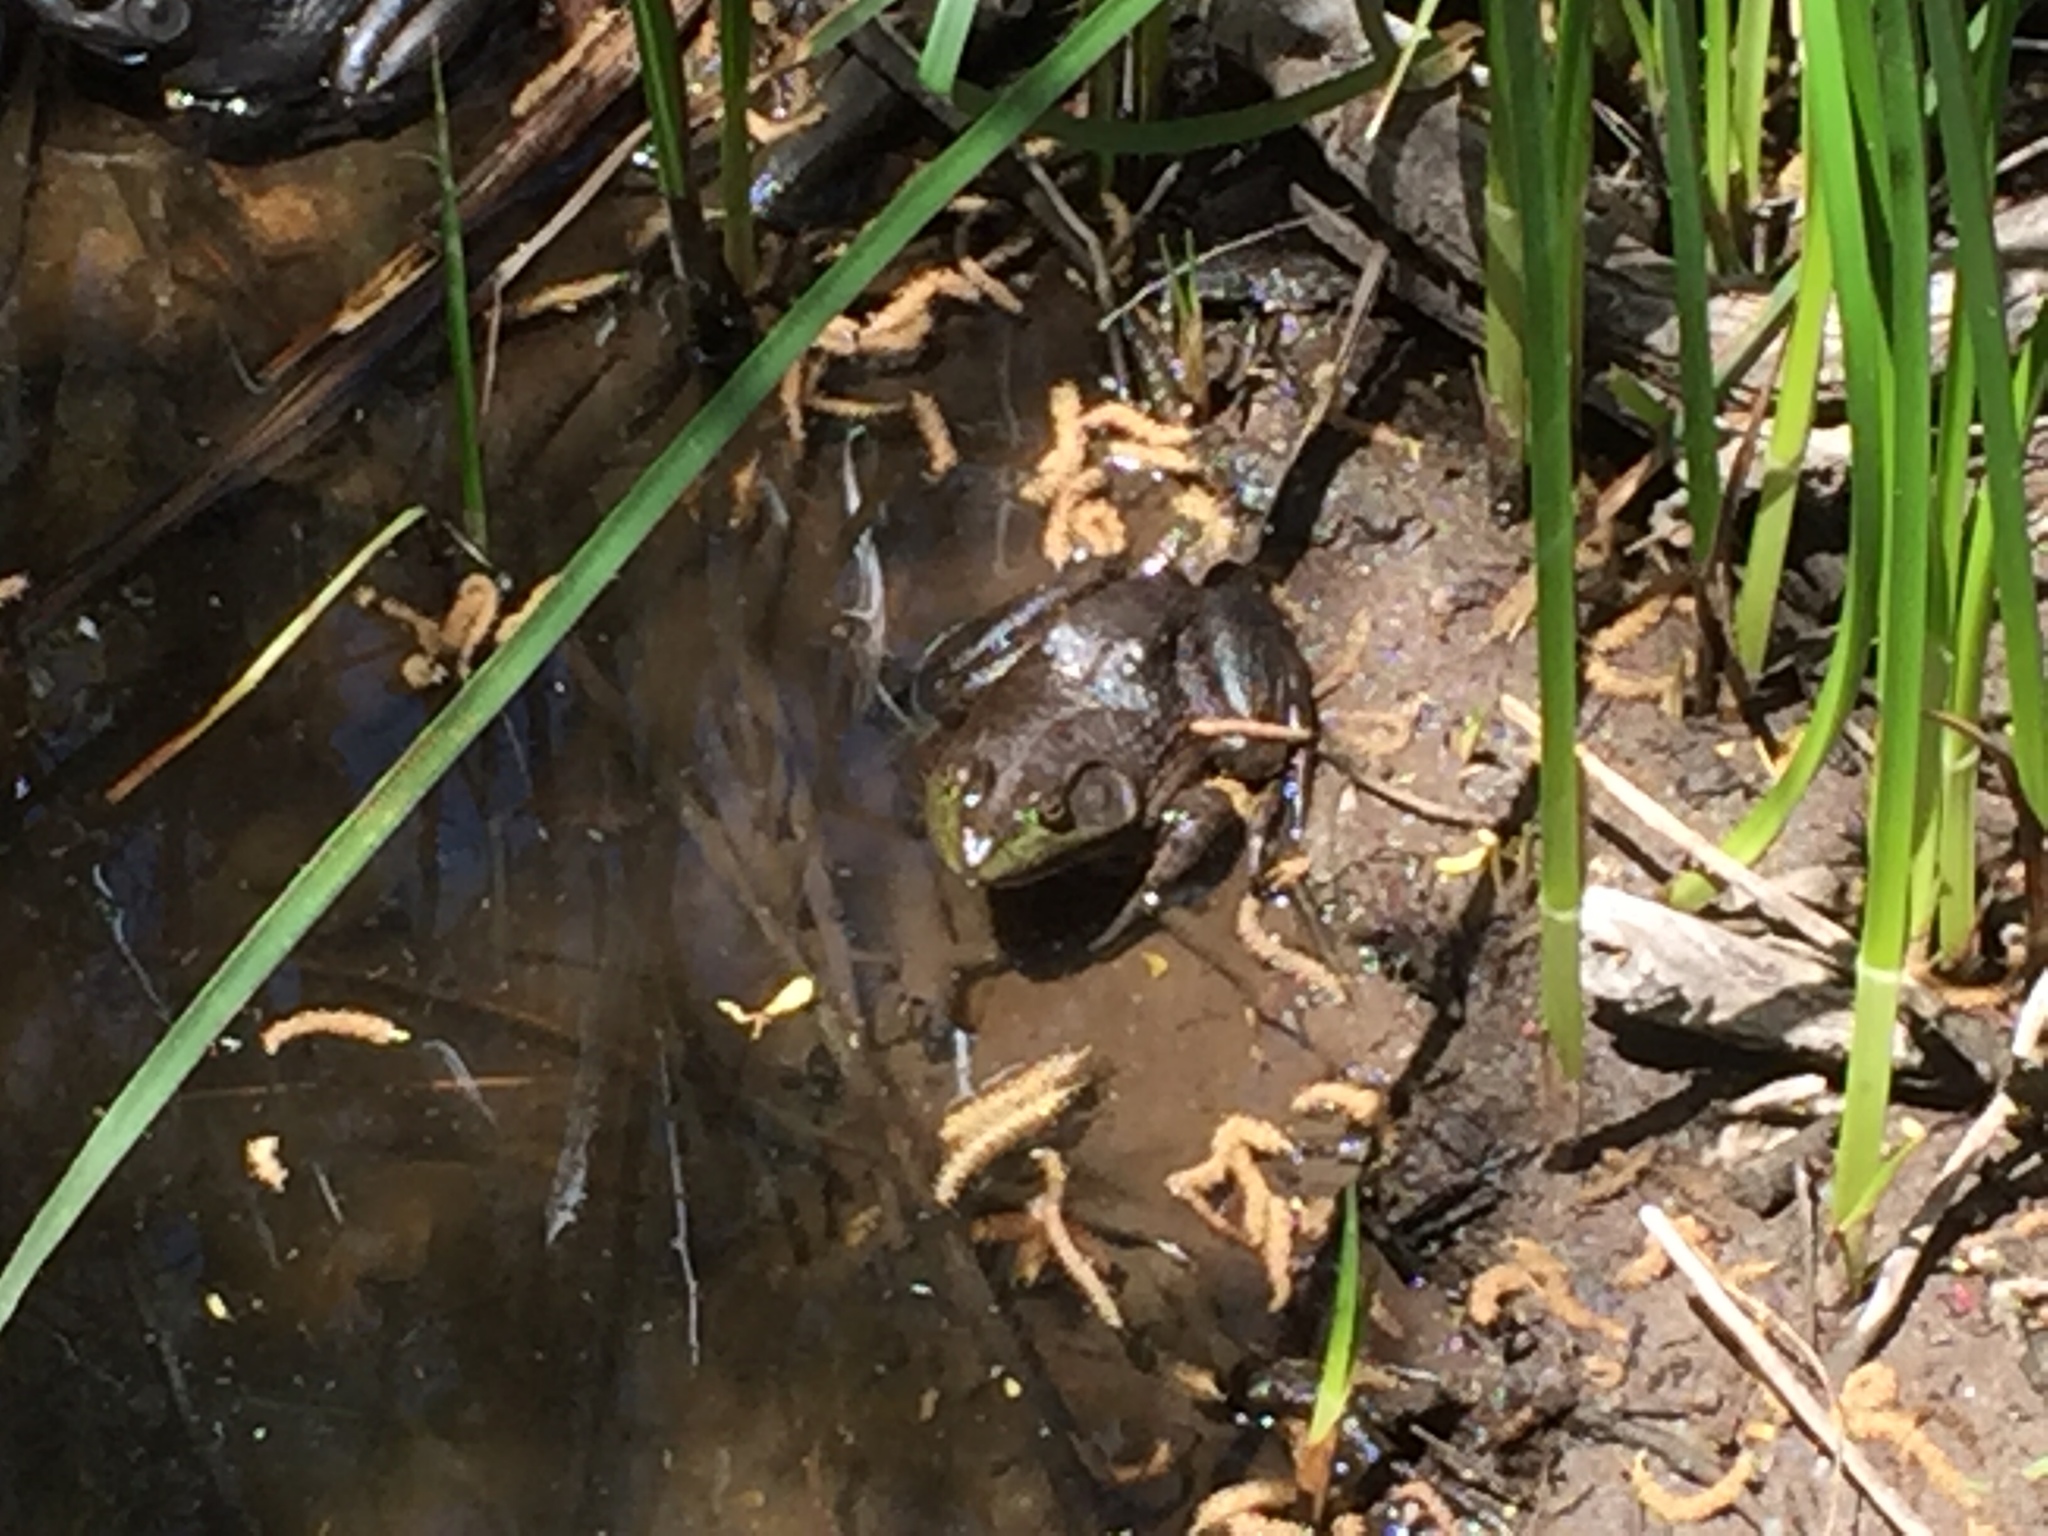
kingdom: Animalia
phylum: Chordata
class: Amphibia
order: Anura
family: Ranidae
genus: Lithobates
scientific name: Lithobates catesbeianus
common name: American bullfrog
